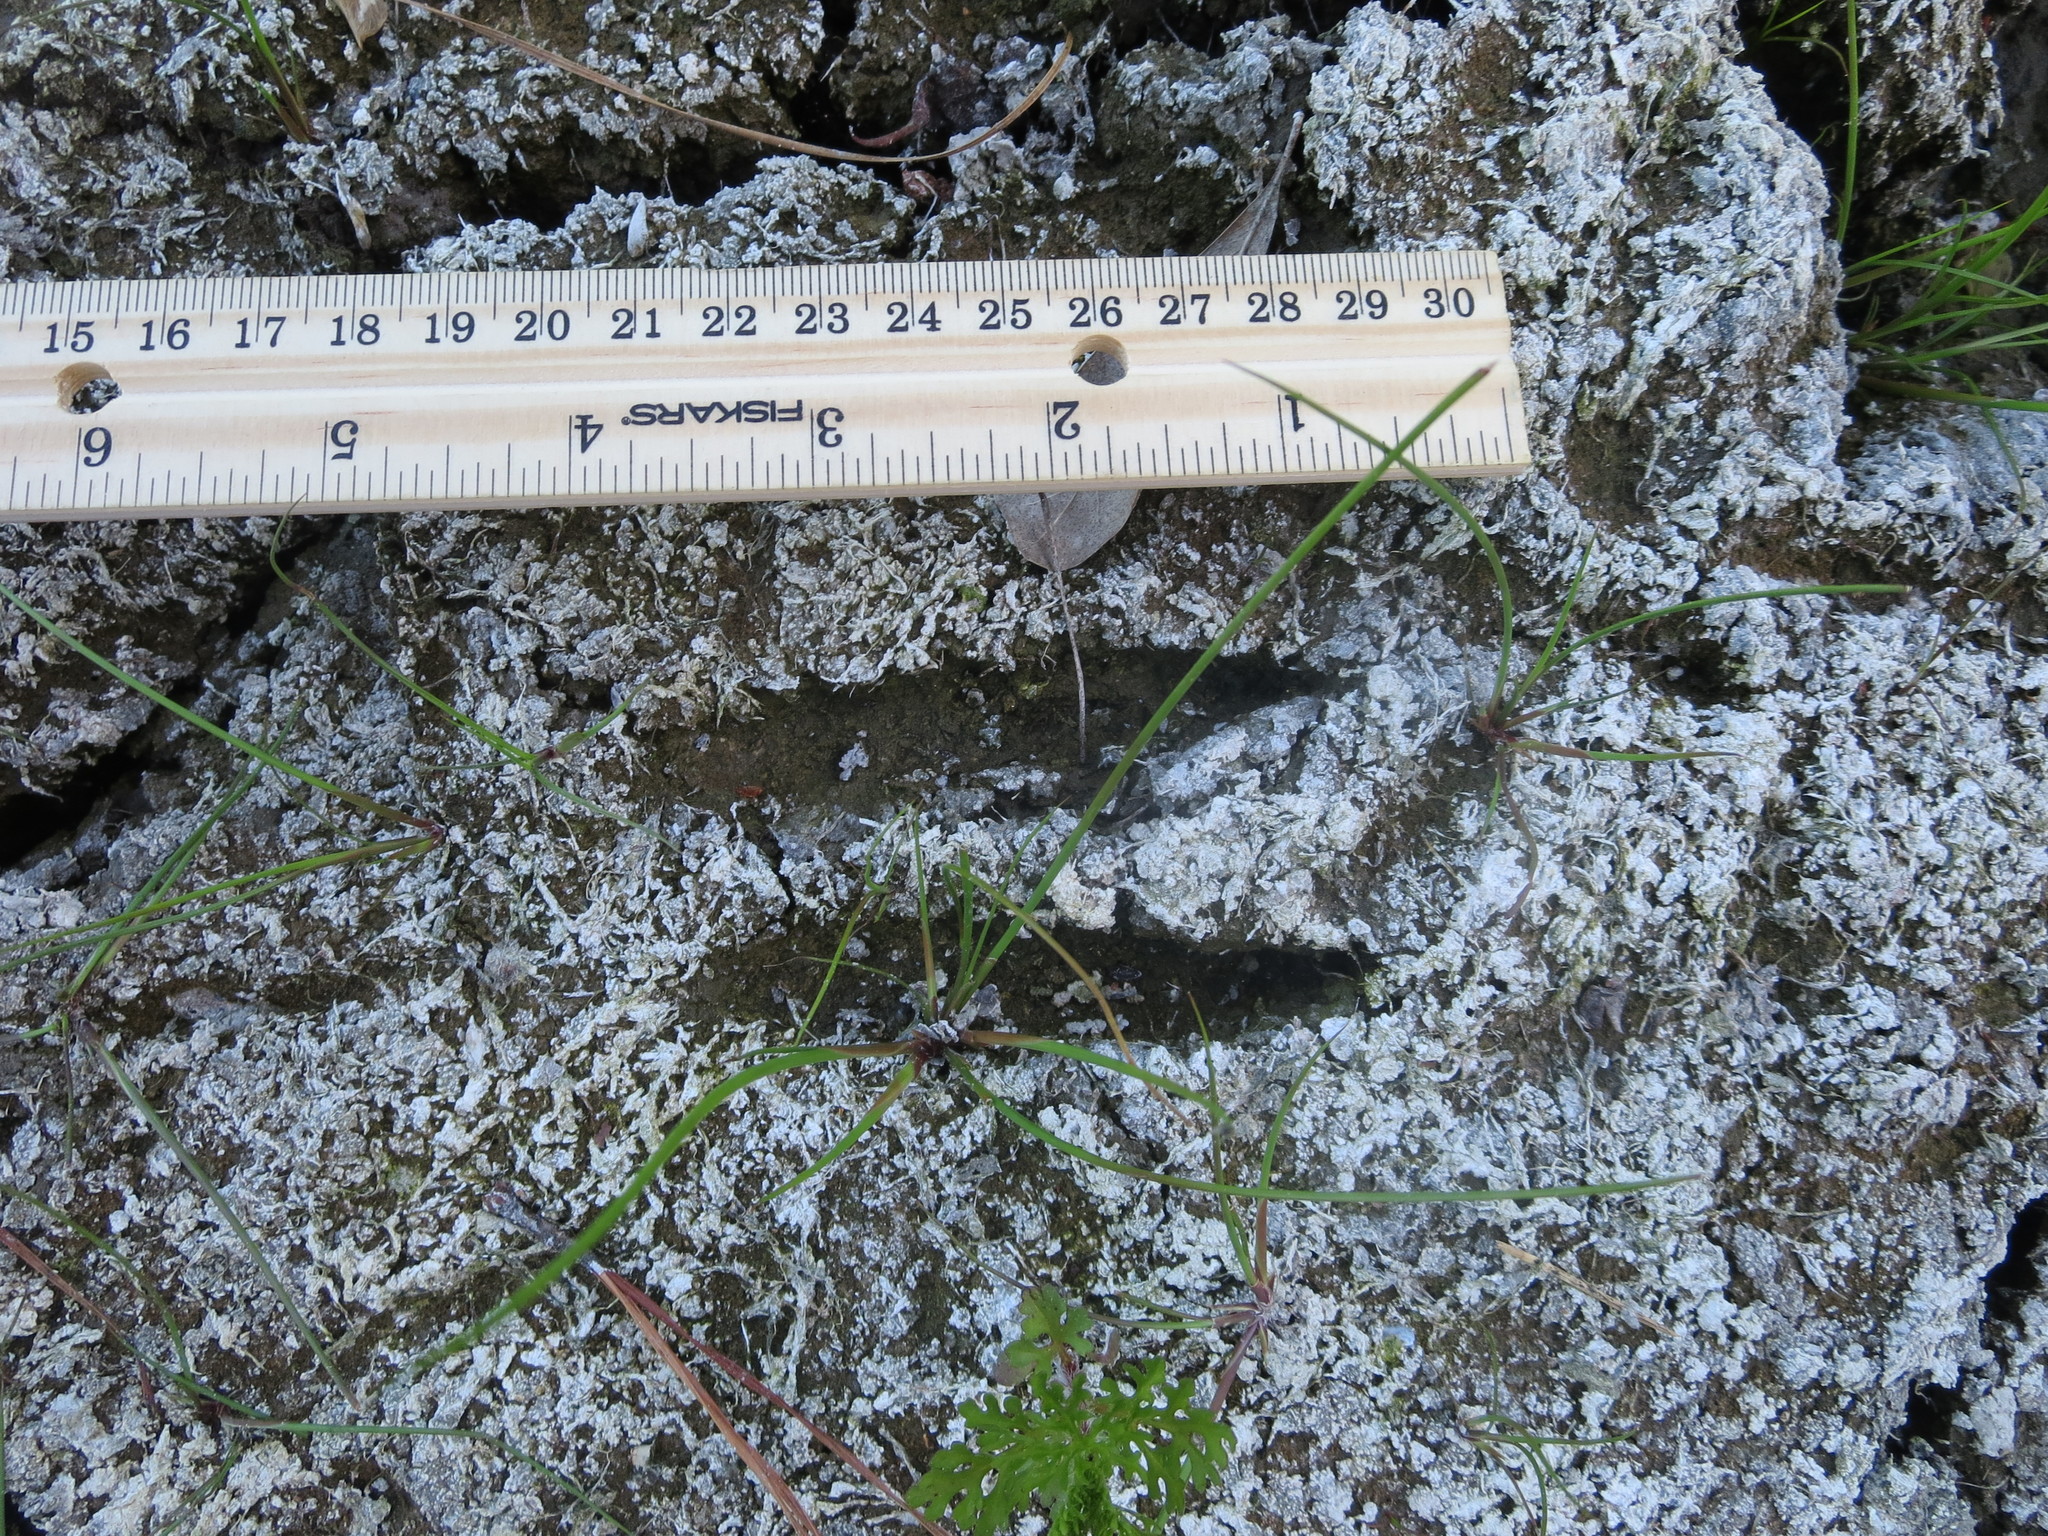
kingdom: Animalia
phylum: Chordata
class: Mammalia
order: Artiodactyla
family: Cervidae
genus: Odocoileus
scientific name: Odocoileus virginianus
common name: White-tailed deer
